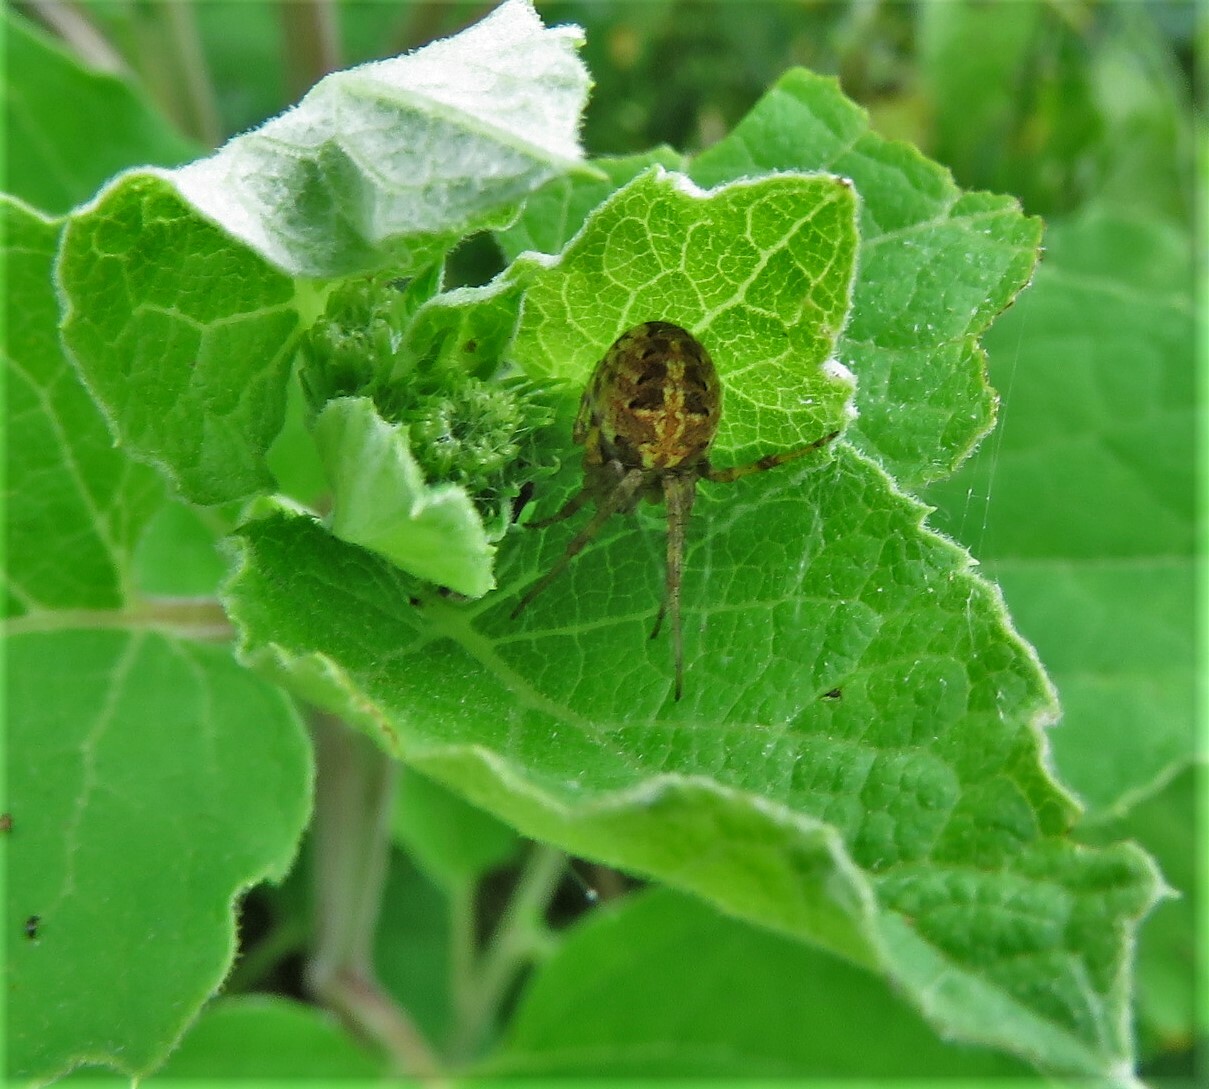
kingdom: Animalia
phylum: Arthropoda
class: Arachnida
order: Araneae
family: Araneidae
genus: Neoscona
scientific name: Neoscona arabesca
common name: Orb weavers
